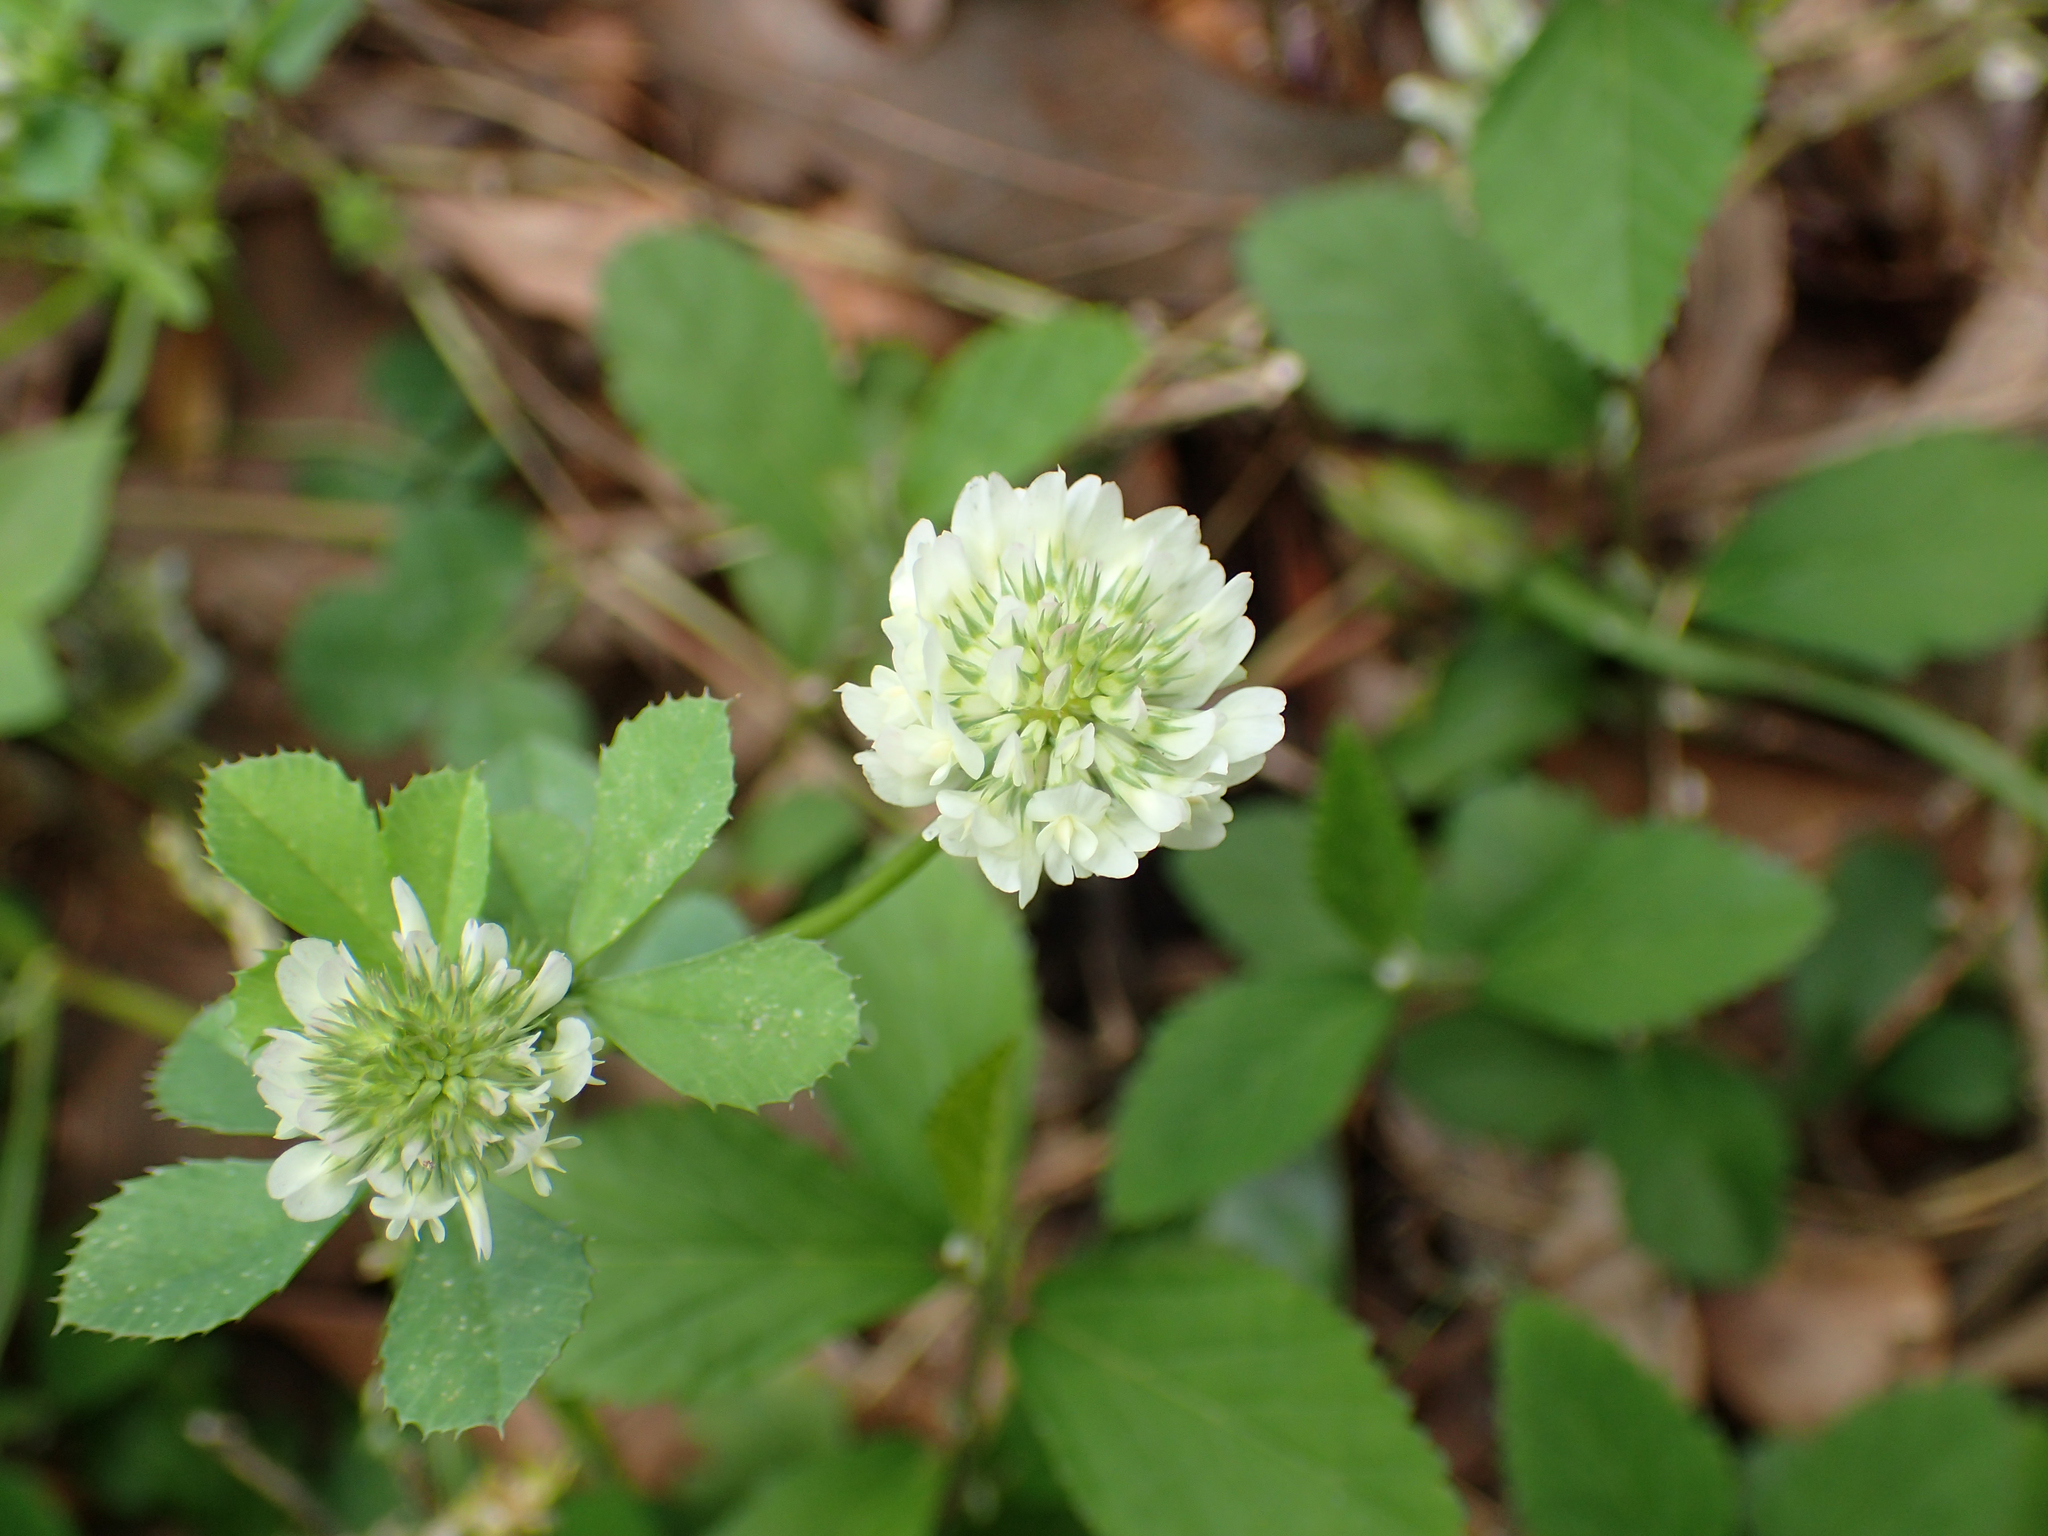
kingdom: Plantae
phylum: Tracheophyta
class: Magnoliopsida
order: Fabales
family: Fabaceae
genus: Trifolium
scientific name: Trifolium repens
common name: White clover
